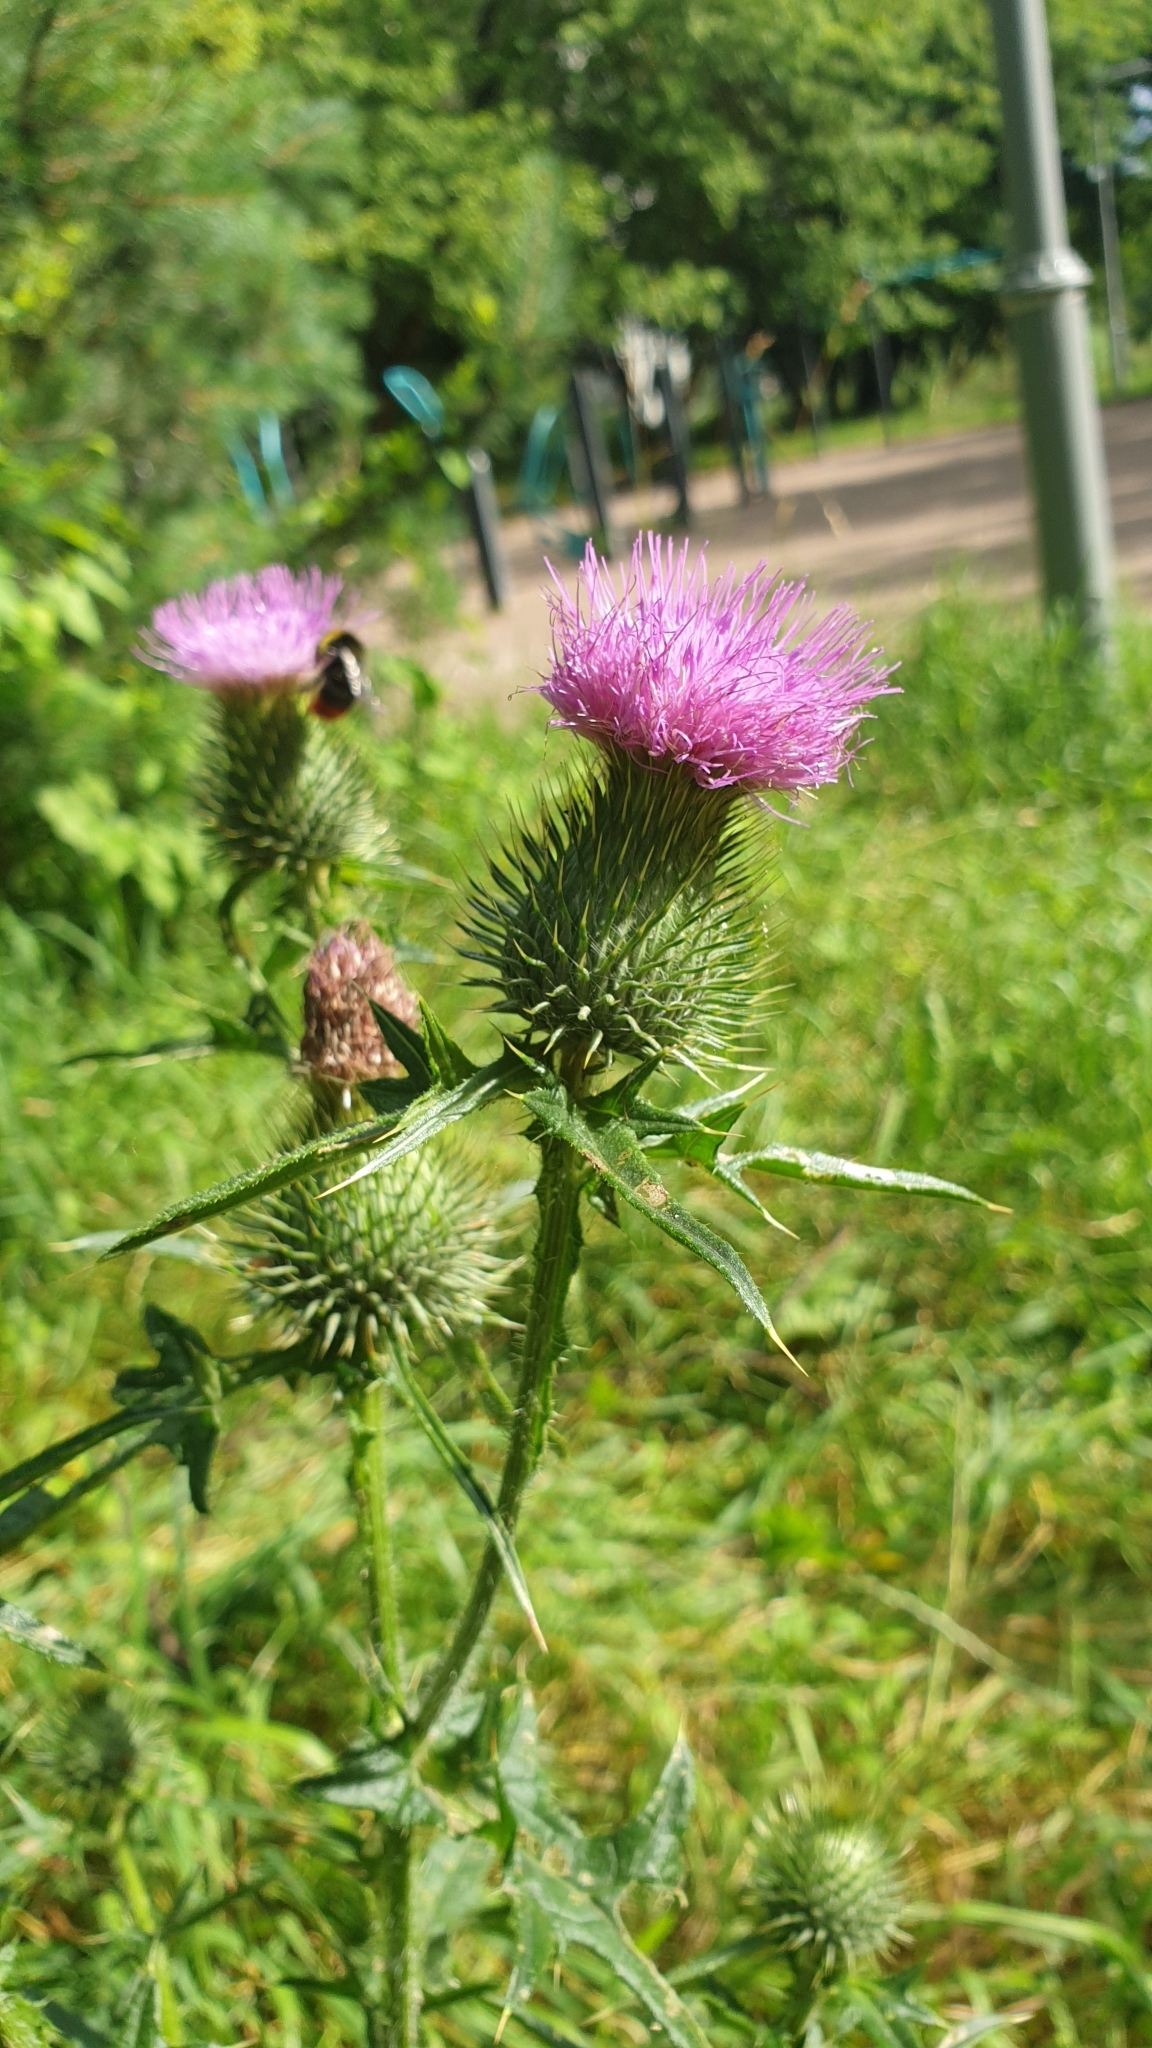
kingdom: Plantae
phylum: Tracheophyta
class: Magnoliopsida
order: Asterales
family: Asteraceae
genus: Cirsium
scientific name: Cirsium vulgare
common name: Bull thistle
